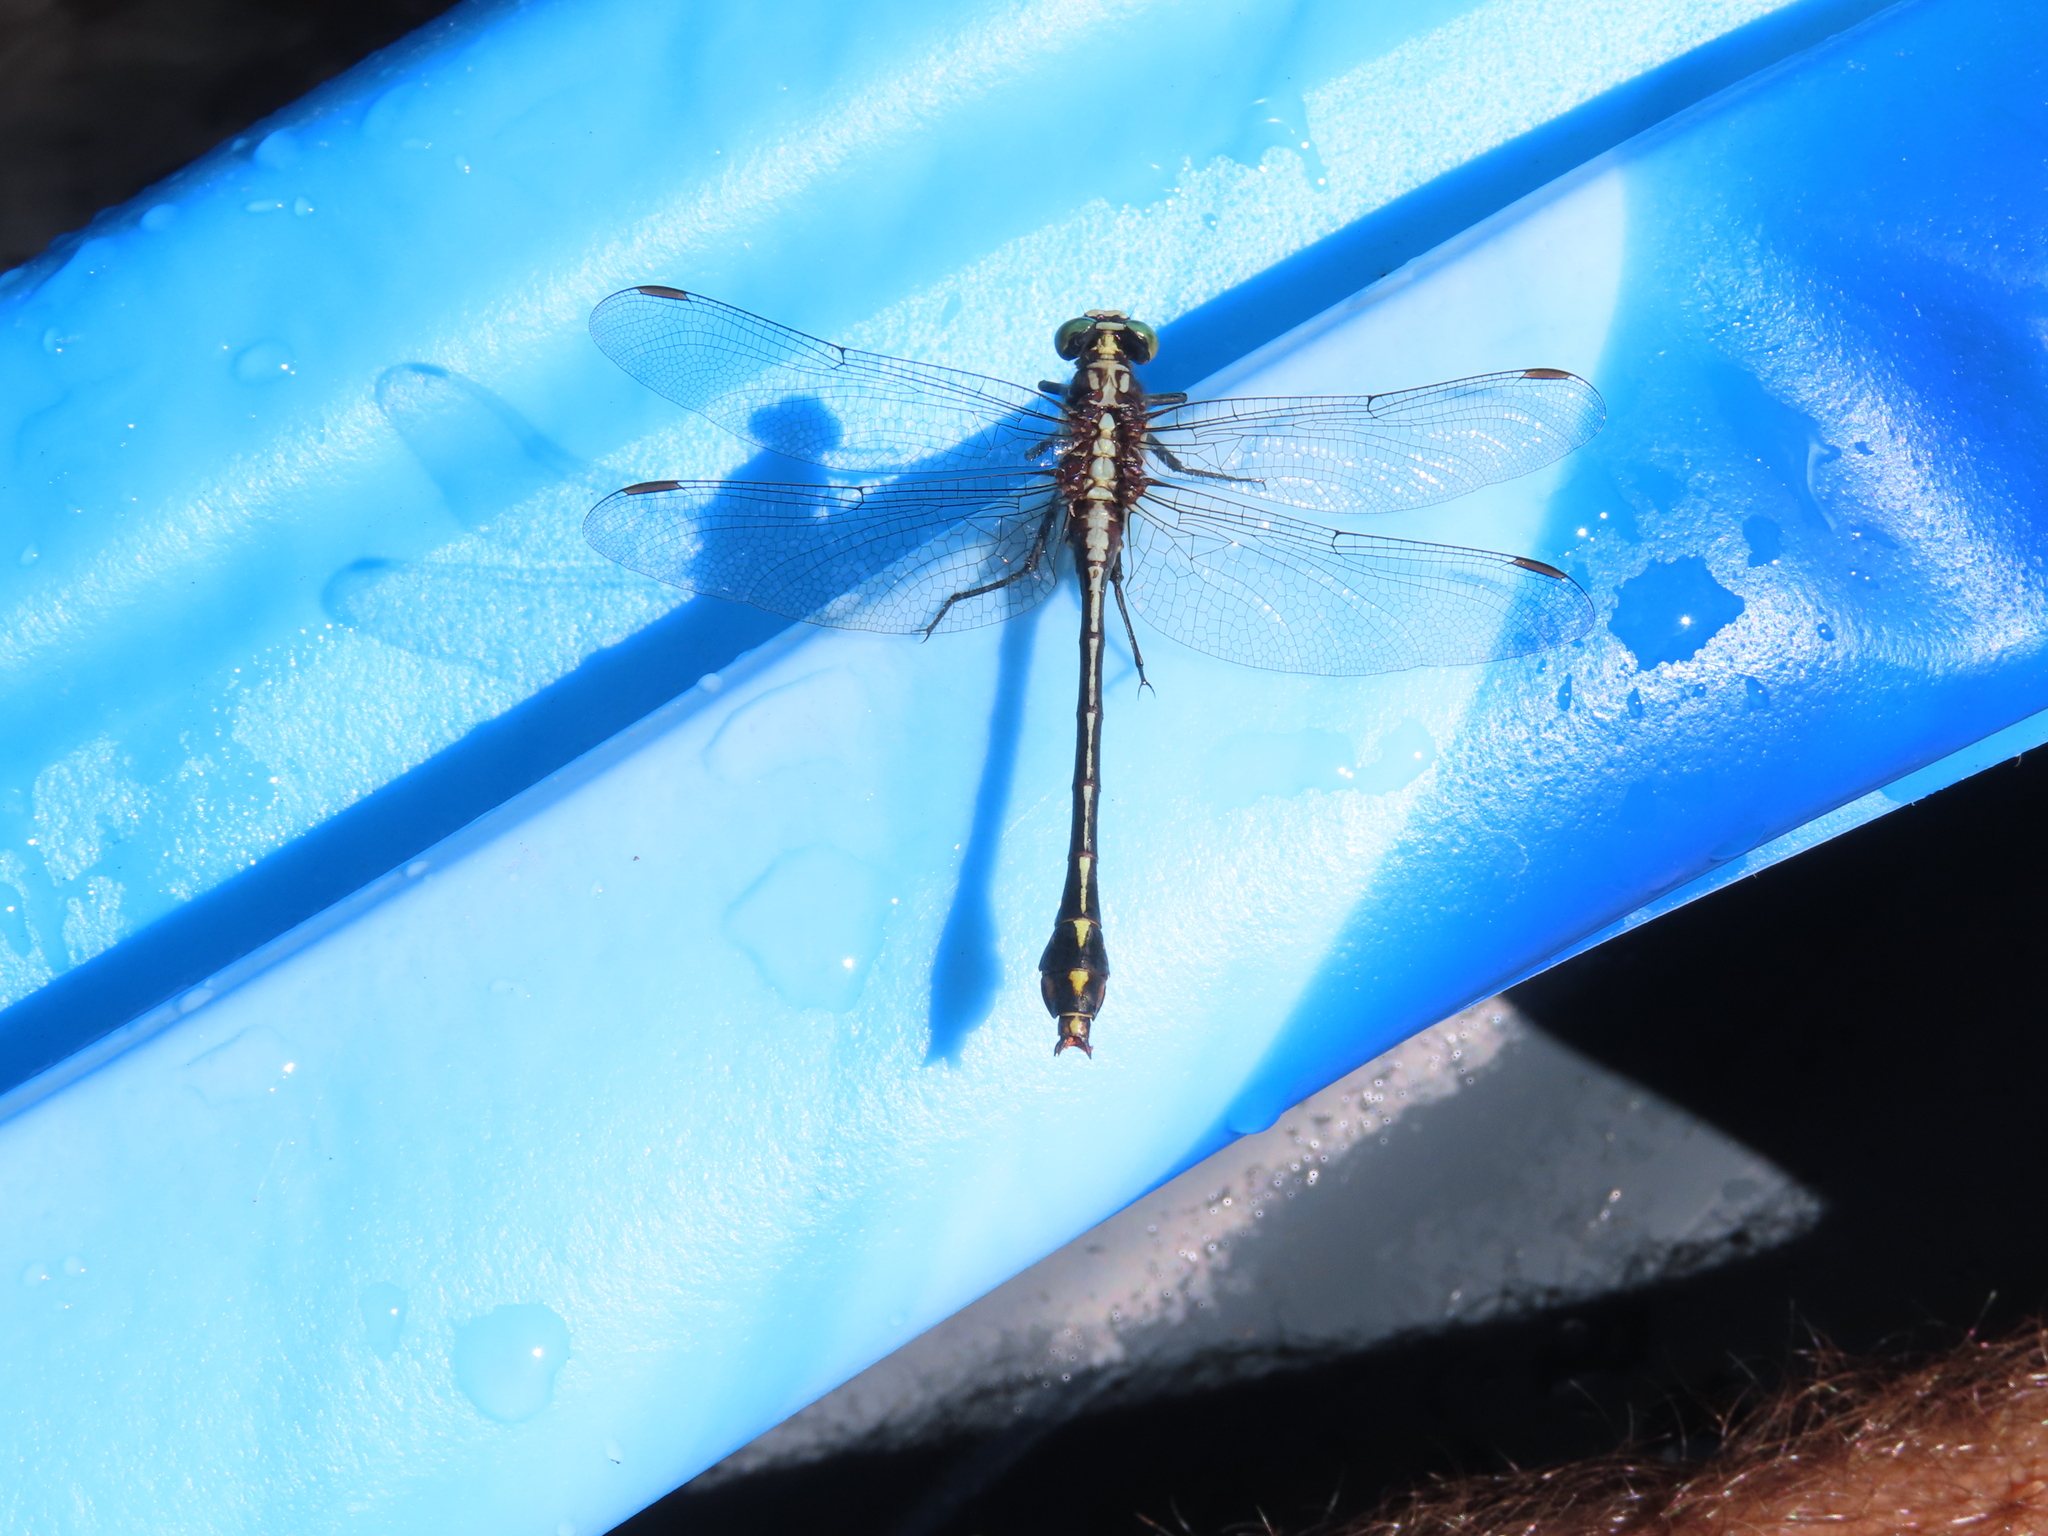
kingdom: Animalia
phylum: Arthropoda
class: Insecta
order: Odonata
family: Gomphidae
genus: Dromogomphus
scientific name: Dromogomphus spinosus
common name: Black-shouldered spinyleg
